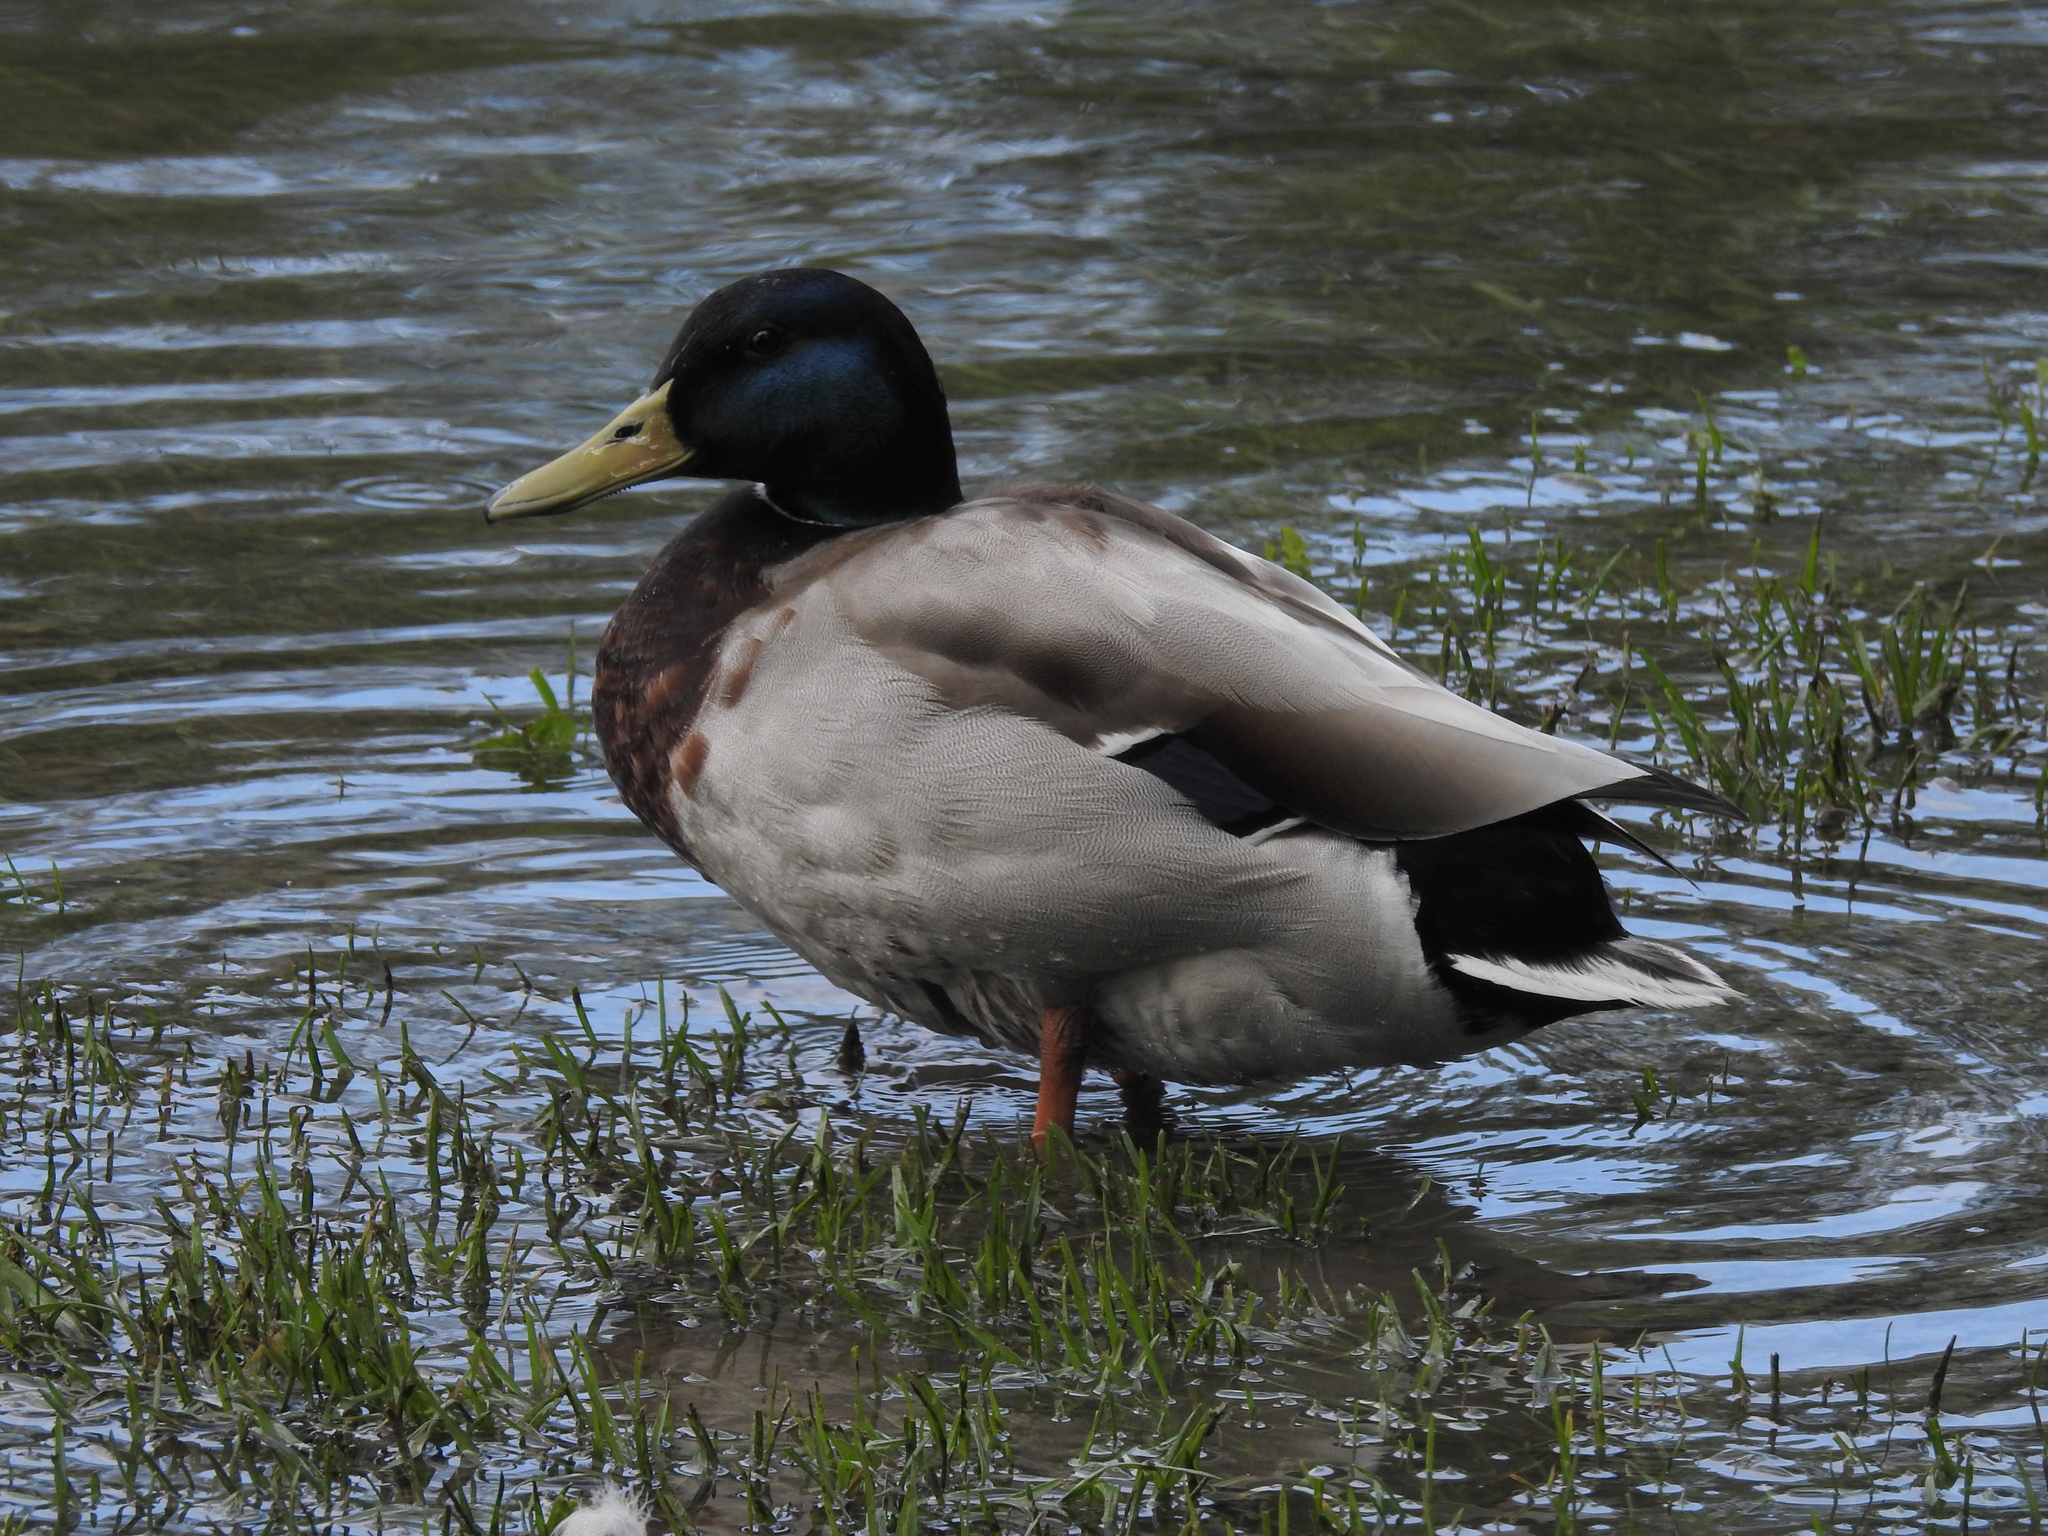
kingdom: Animalia
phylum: Chordata
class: Aves
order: Anseriformes
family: Anatidae
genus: Anas
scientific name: Anas platyrhynchos
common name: Mallard
